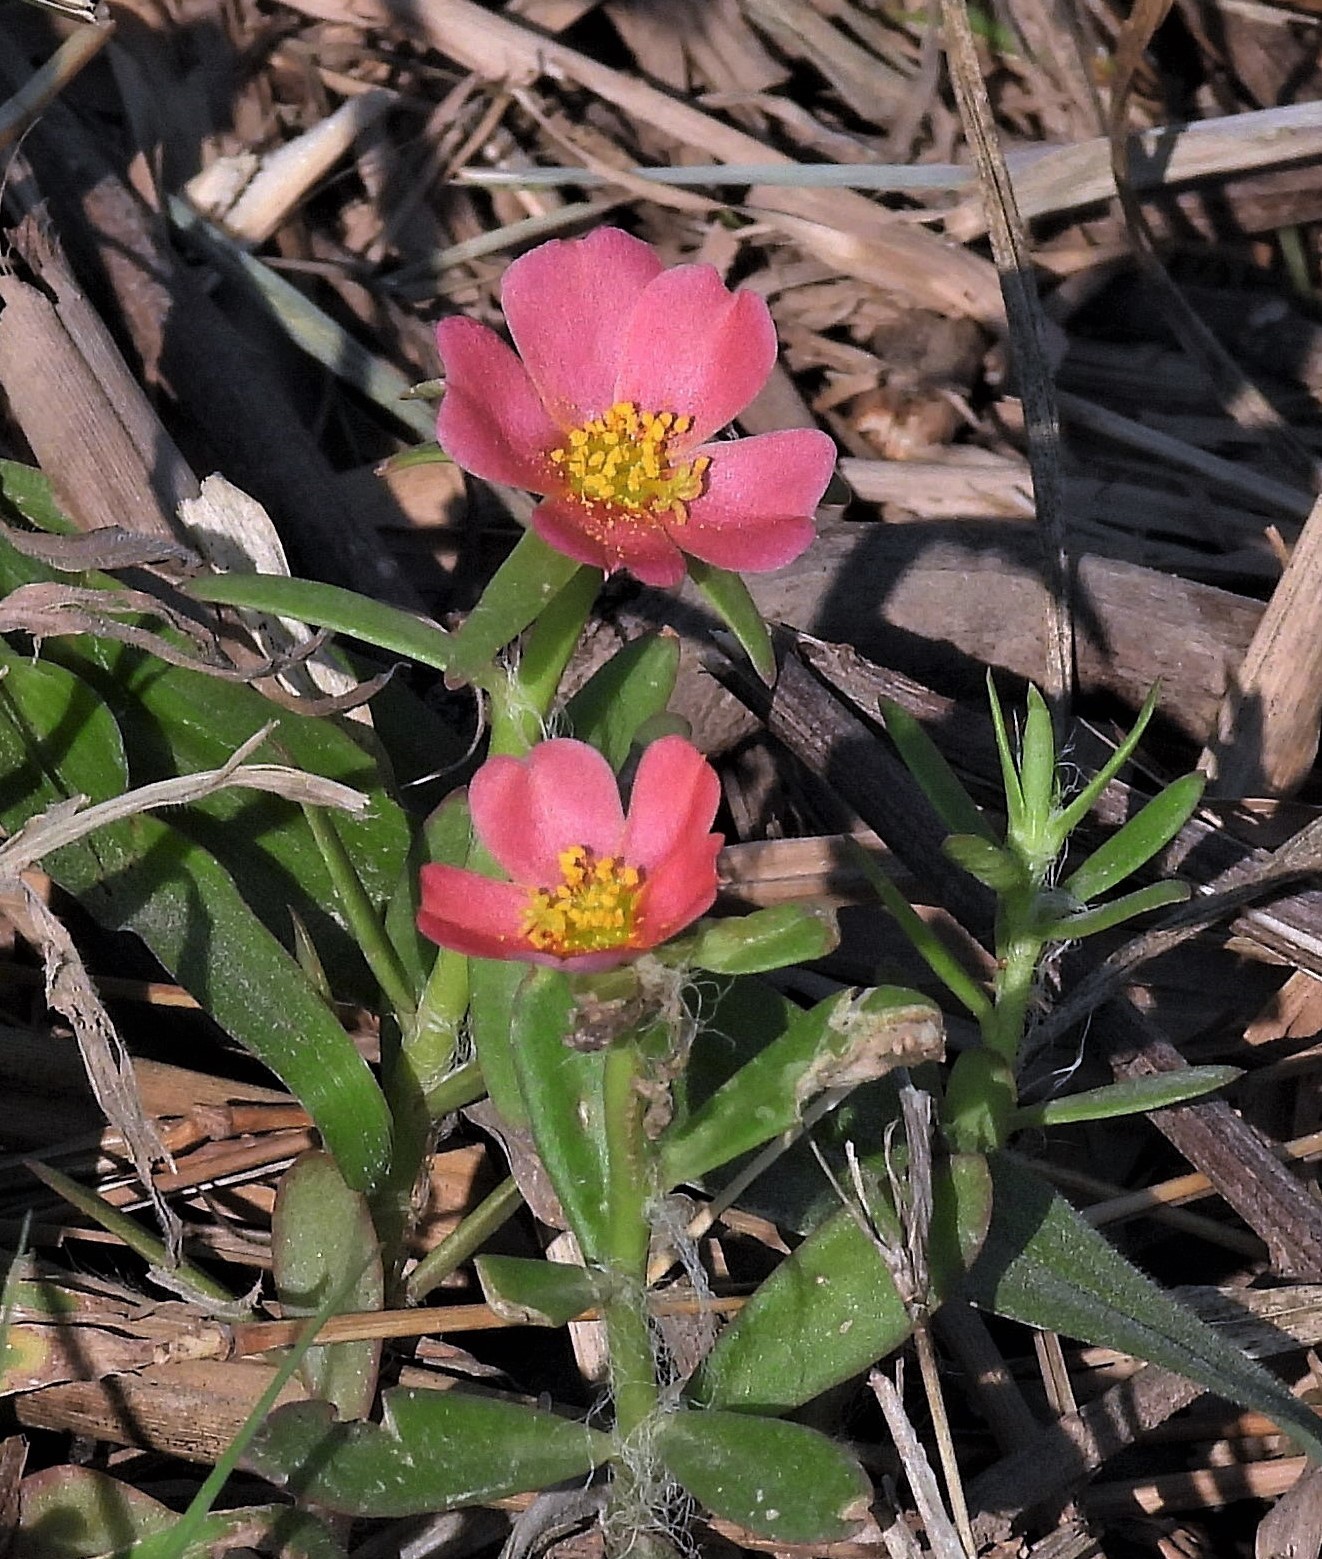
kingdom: Plantae
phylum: Tracheophyta
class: Magnoliopsida
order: Caryophyllales
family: Portulacaceae
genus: Portulaca
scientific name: Portulaca cryptopetala
